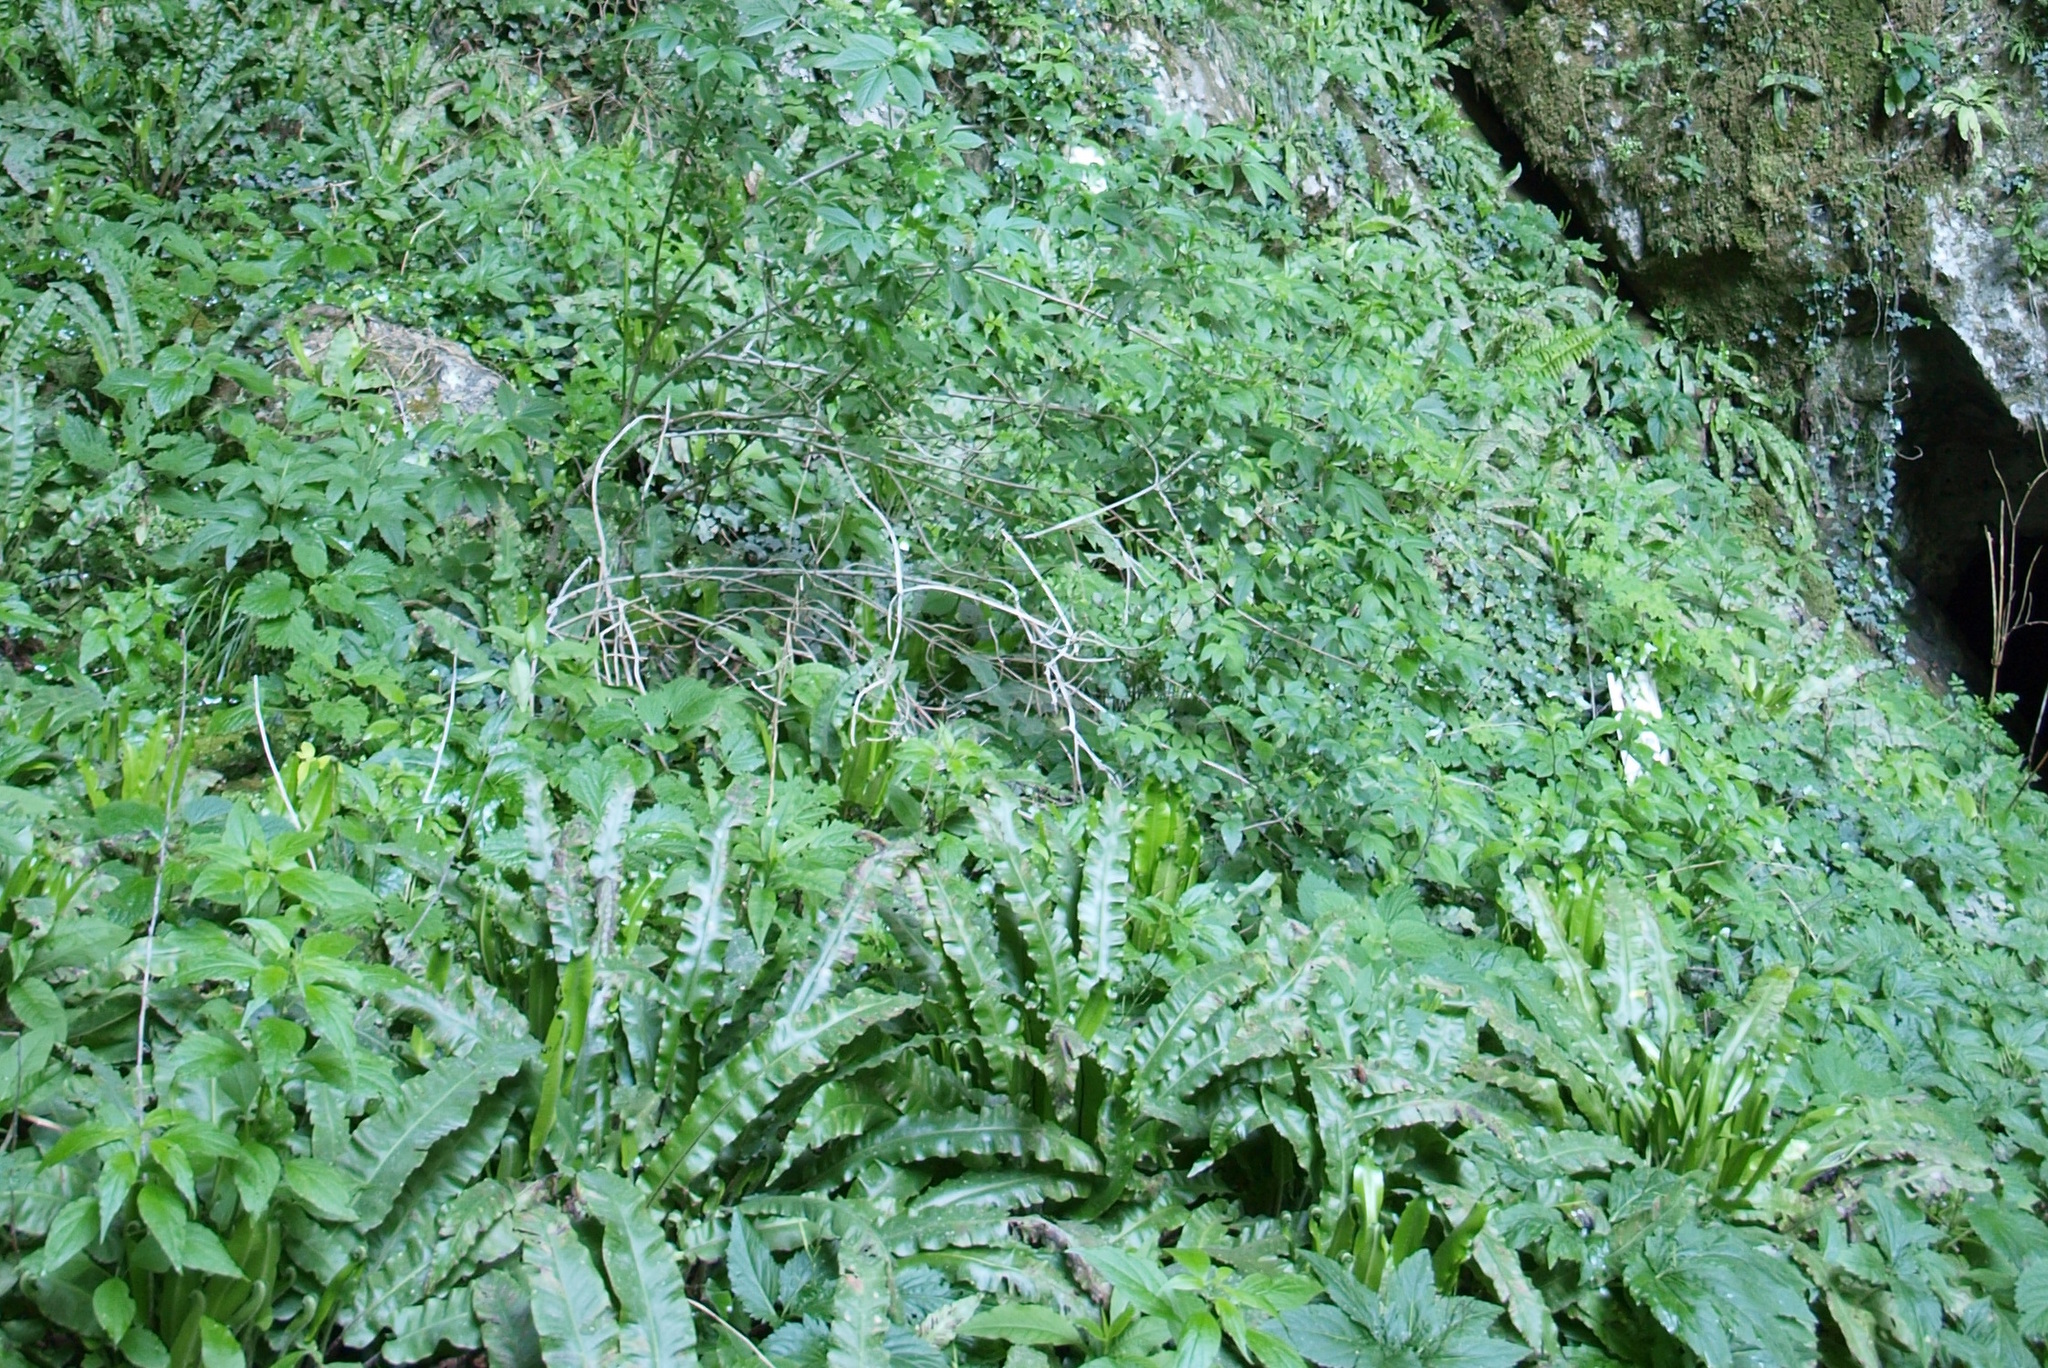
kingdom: Plantae
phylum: Tracheophyta
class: Polypodiopsida
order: Polypodiales
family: Aspleniaceae
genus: Asplenium
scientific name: Asplenium scolopendrium
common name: Hart's-tongue fern
